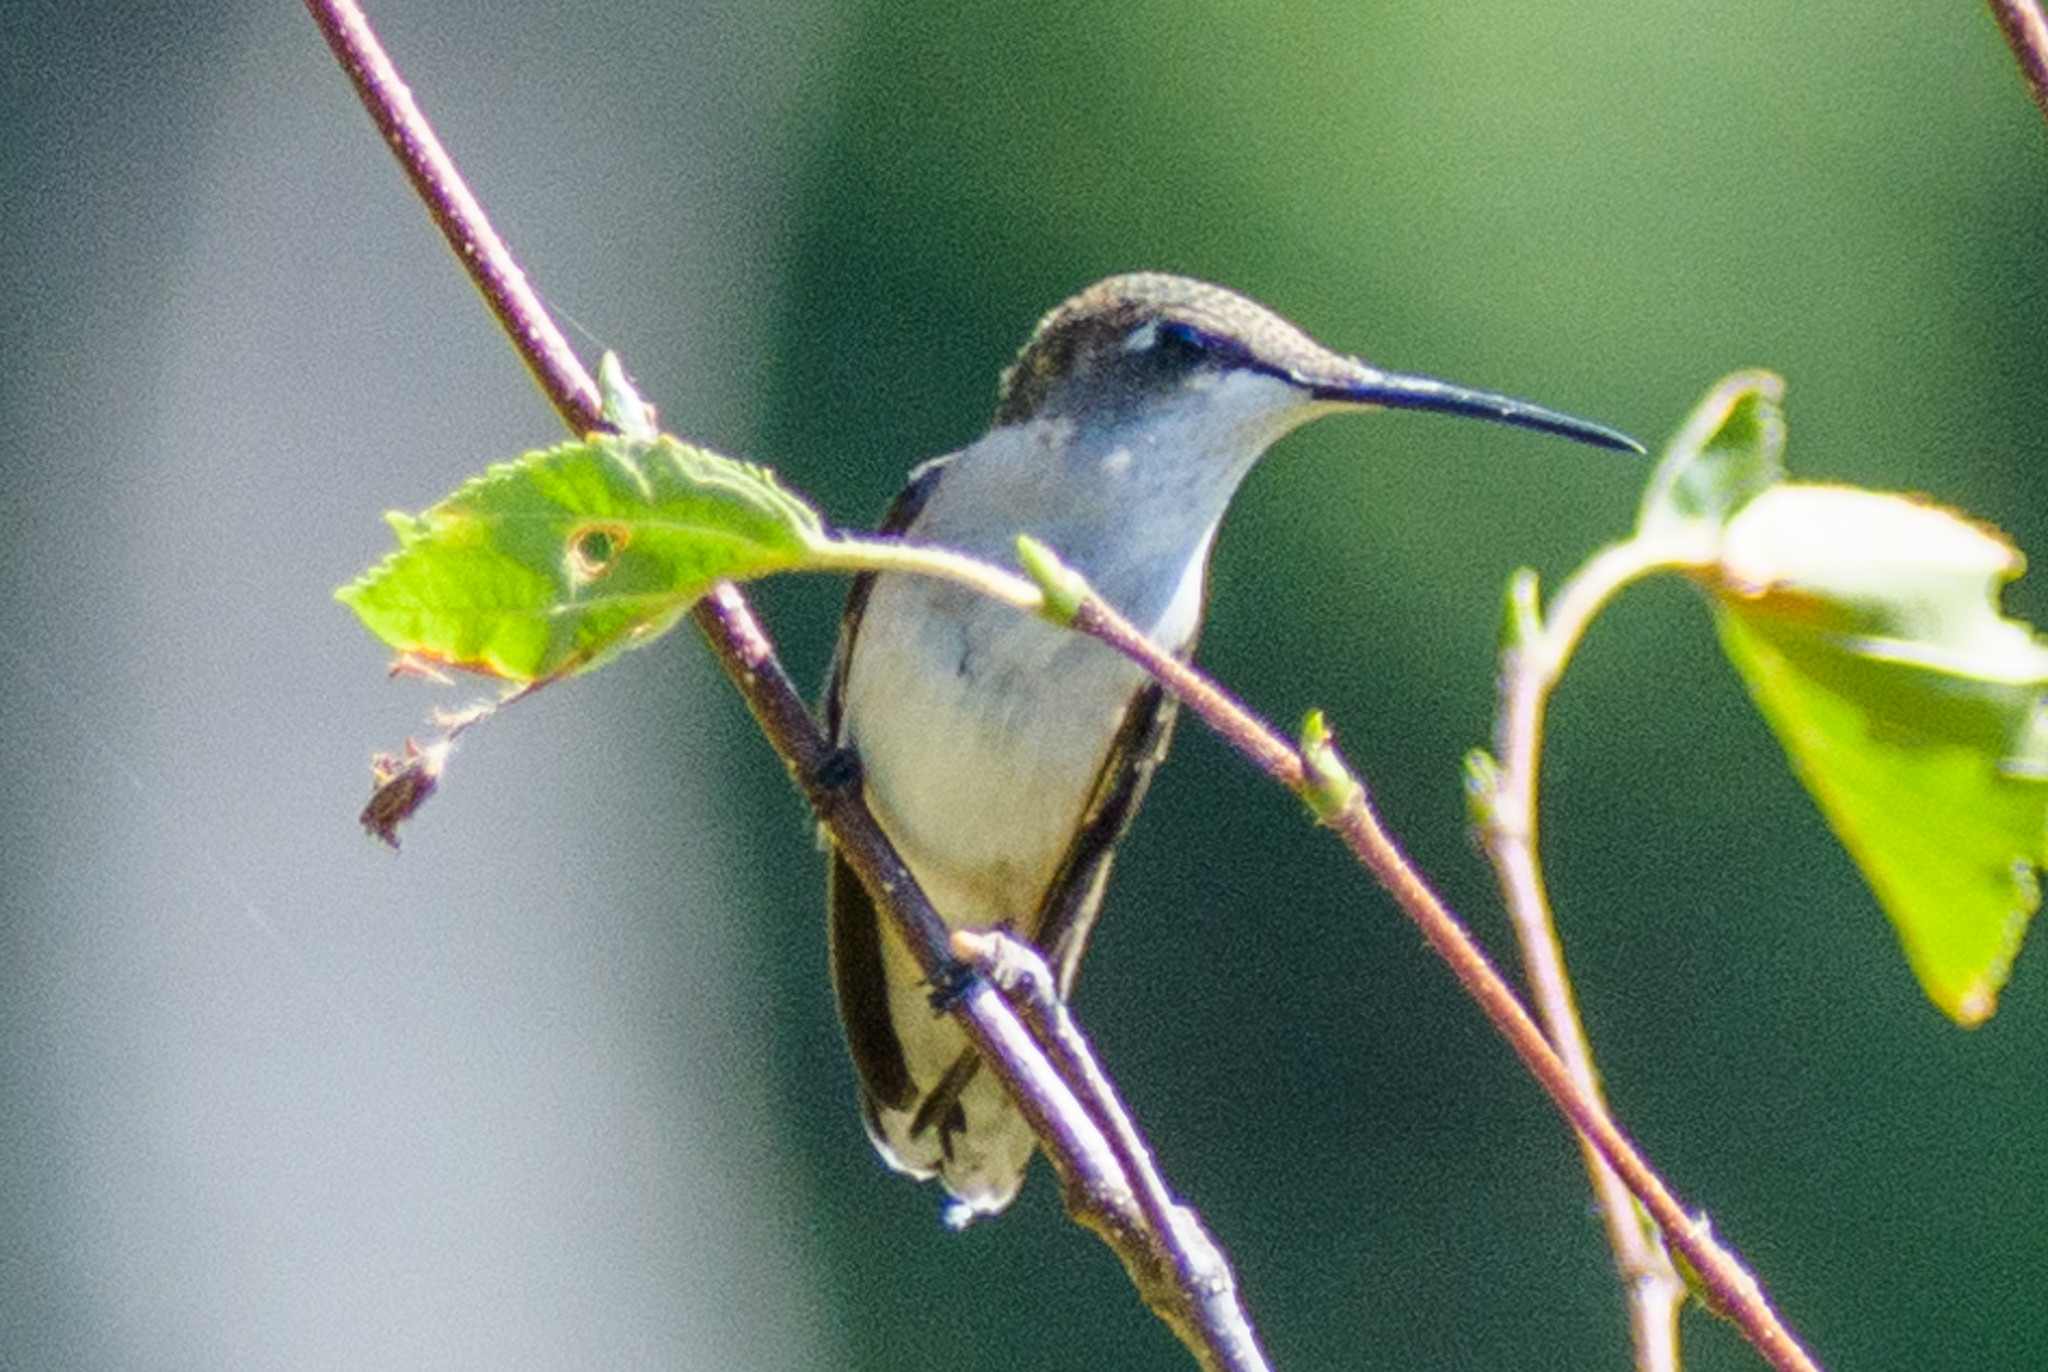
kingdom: Animalia
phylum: Chordata
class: Aves
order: Apodiformes
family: Trochilidae
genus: Archilochus
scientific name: Archilochus colubris
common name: Ruby-throated hummingbird
